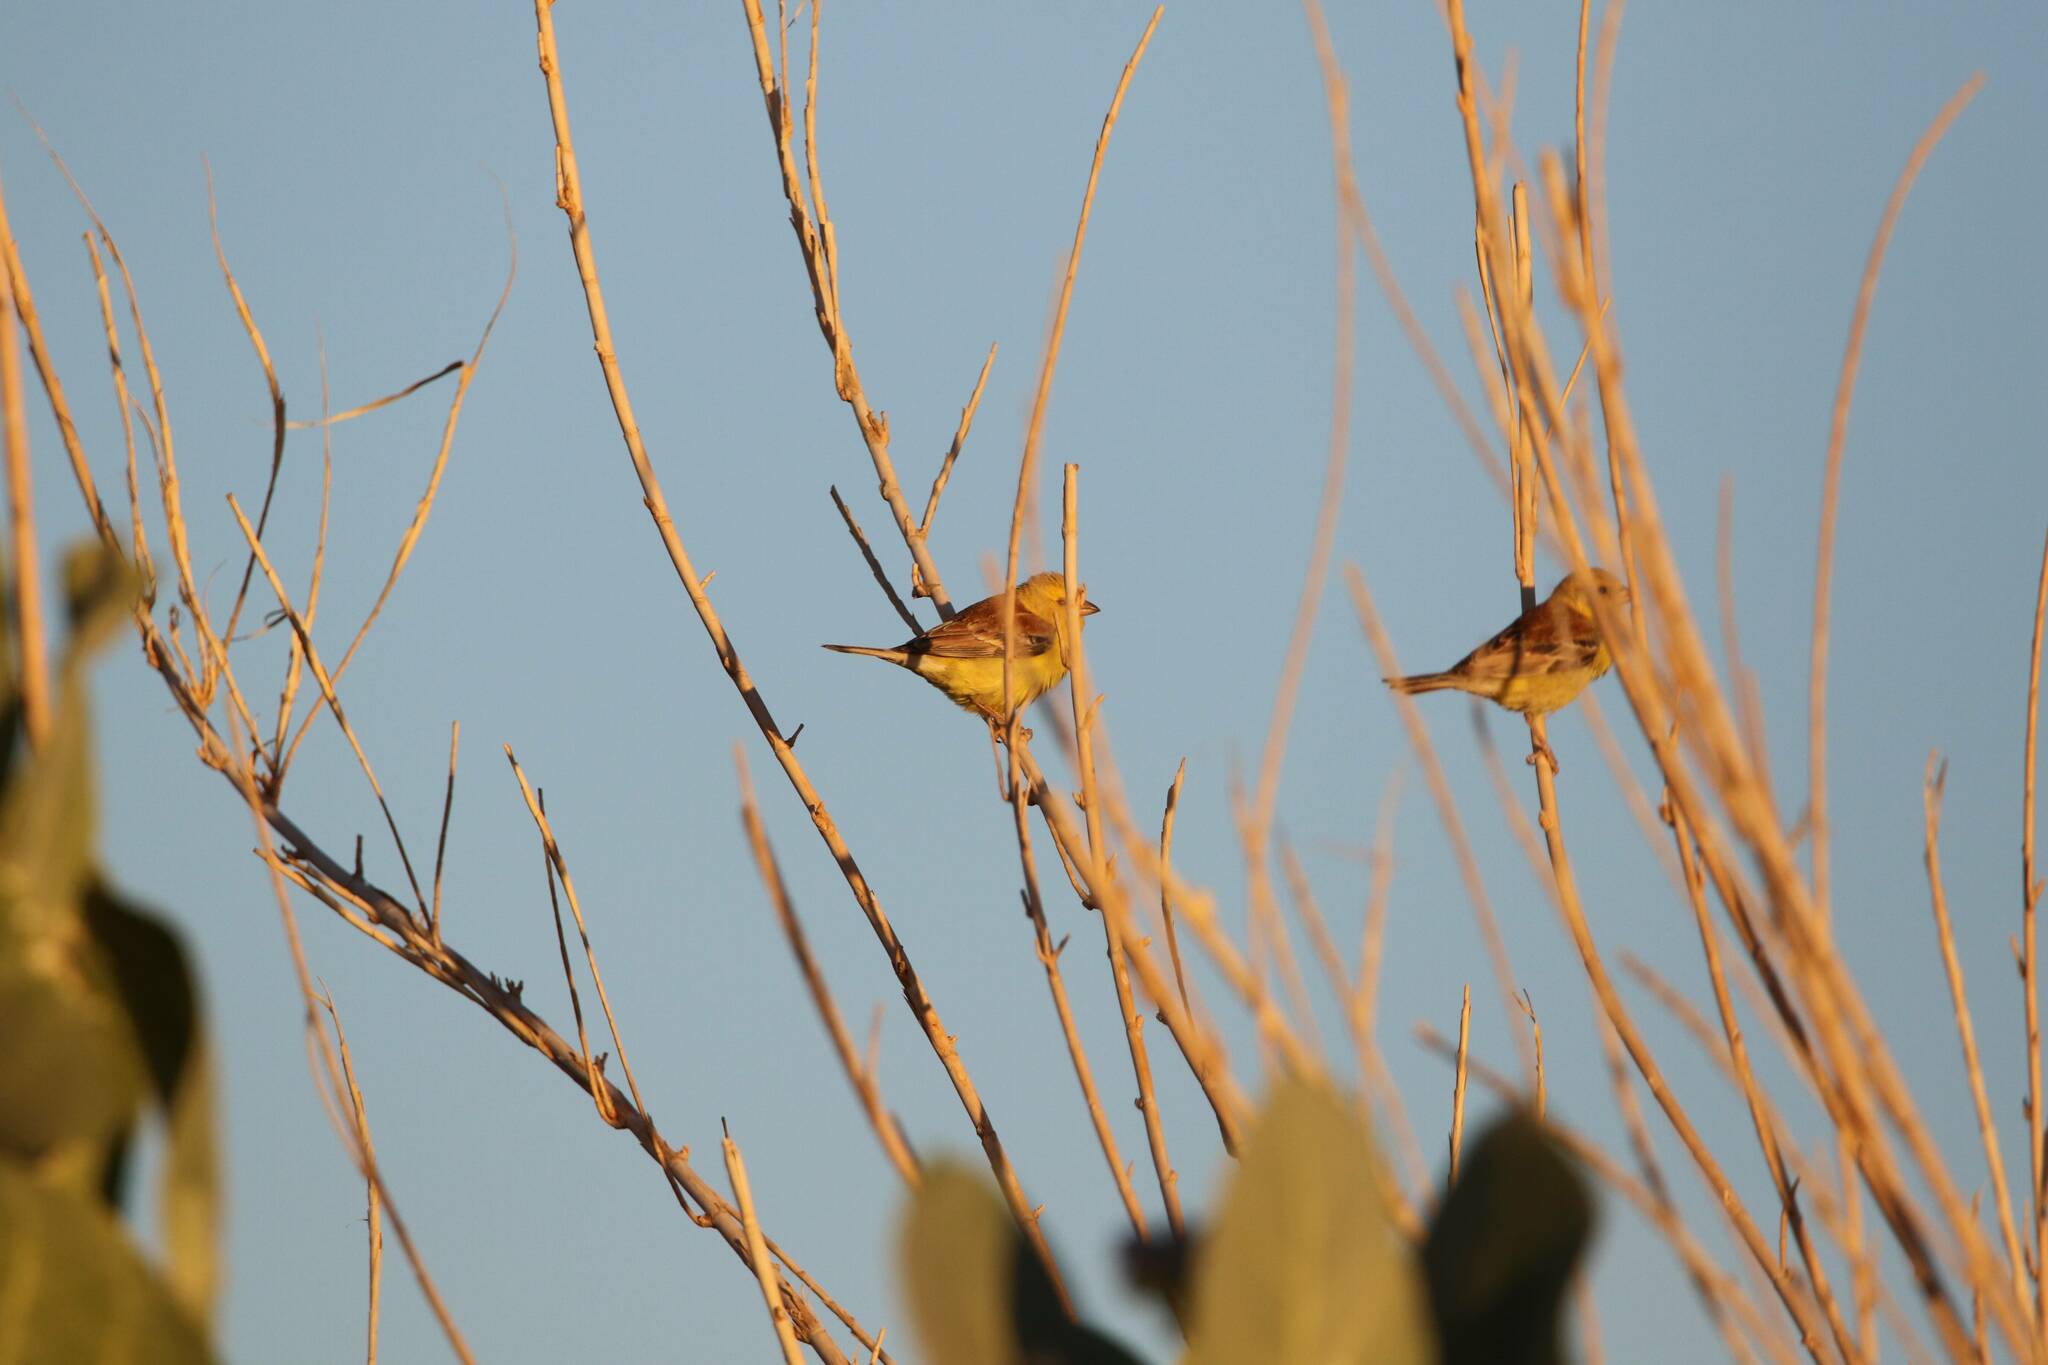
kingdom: Animalia
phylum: Chordata
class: Aves
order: Passeriformes
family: Passeridae
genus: Passer
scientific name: Passer luteus
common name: Sudan golden sparrow
